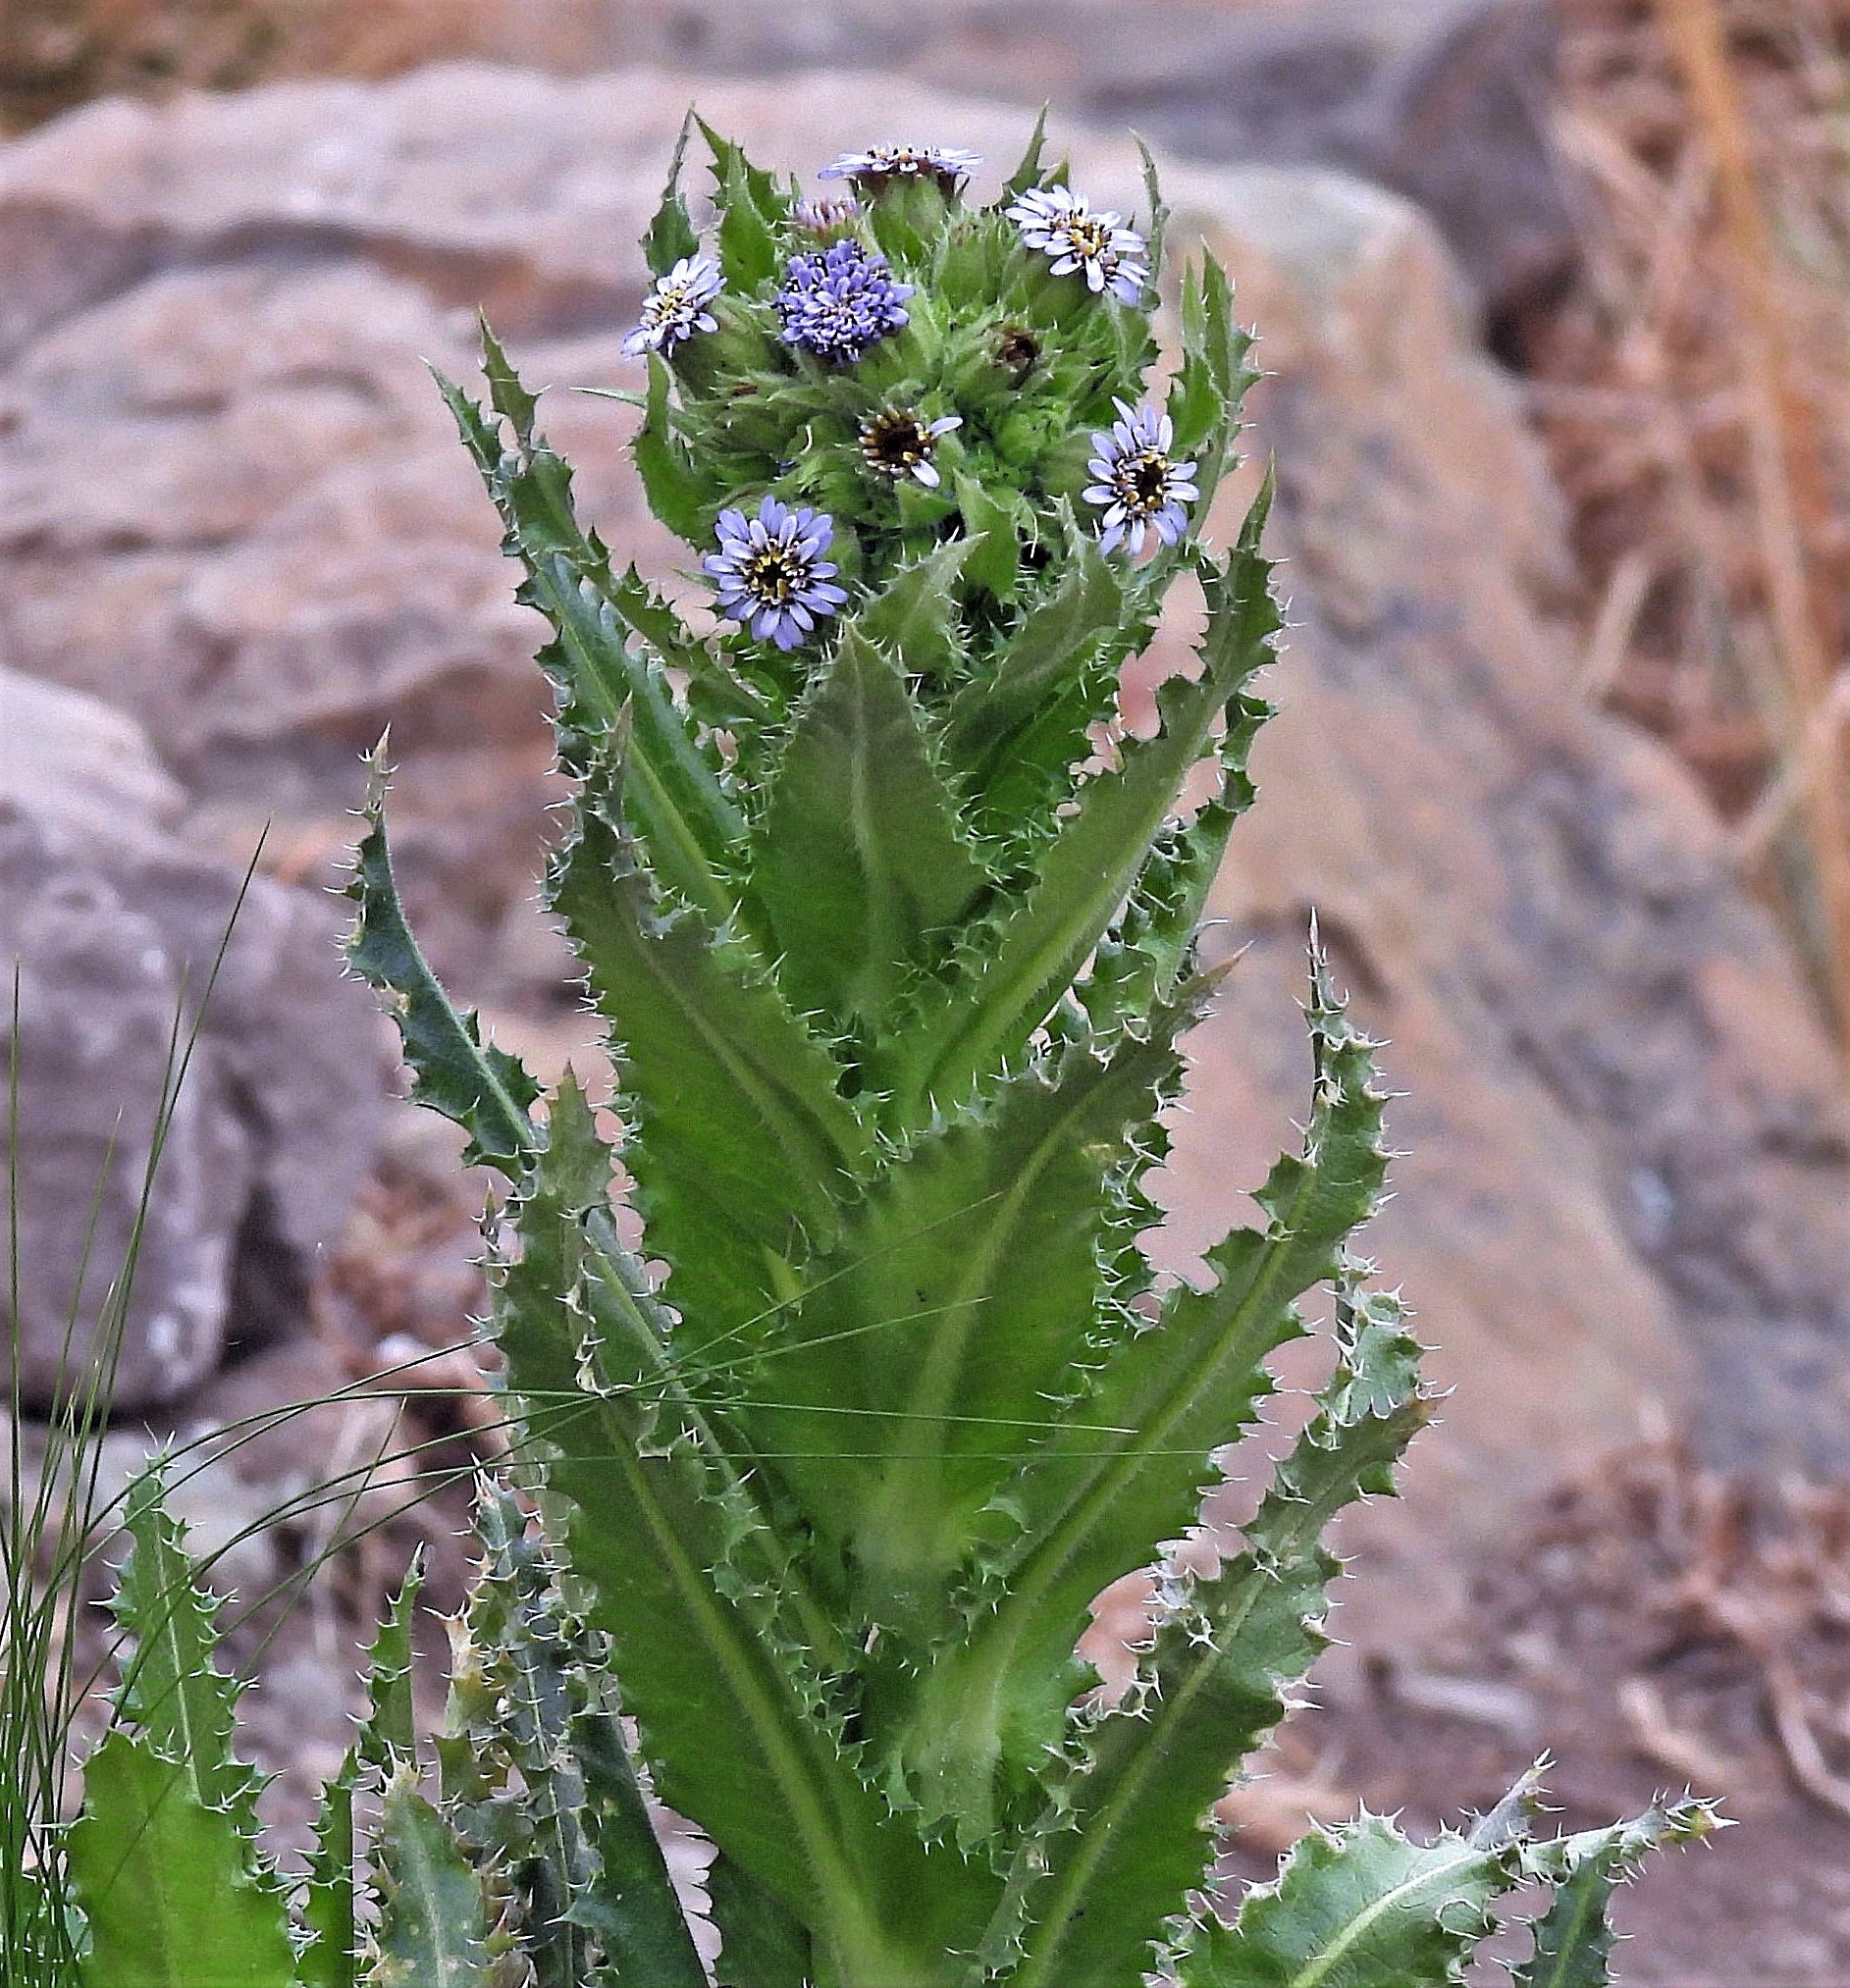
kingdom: Plantae
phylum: Tracheophyta
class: Magnoliopsida
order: Asterales
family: Asteraceae
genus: Perezia
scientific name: Perezia multiflora
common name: Perezia
